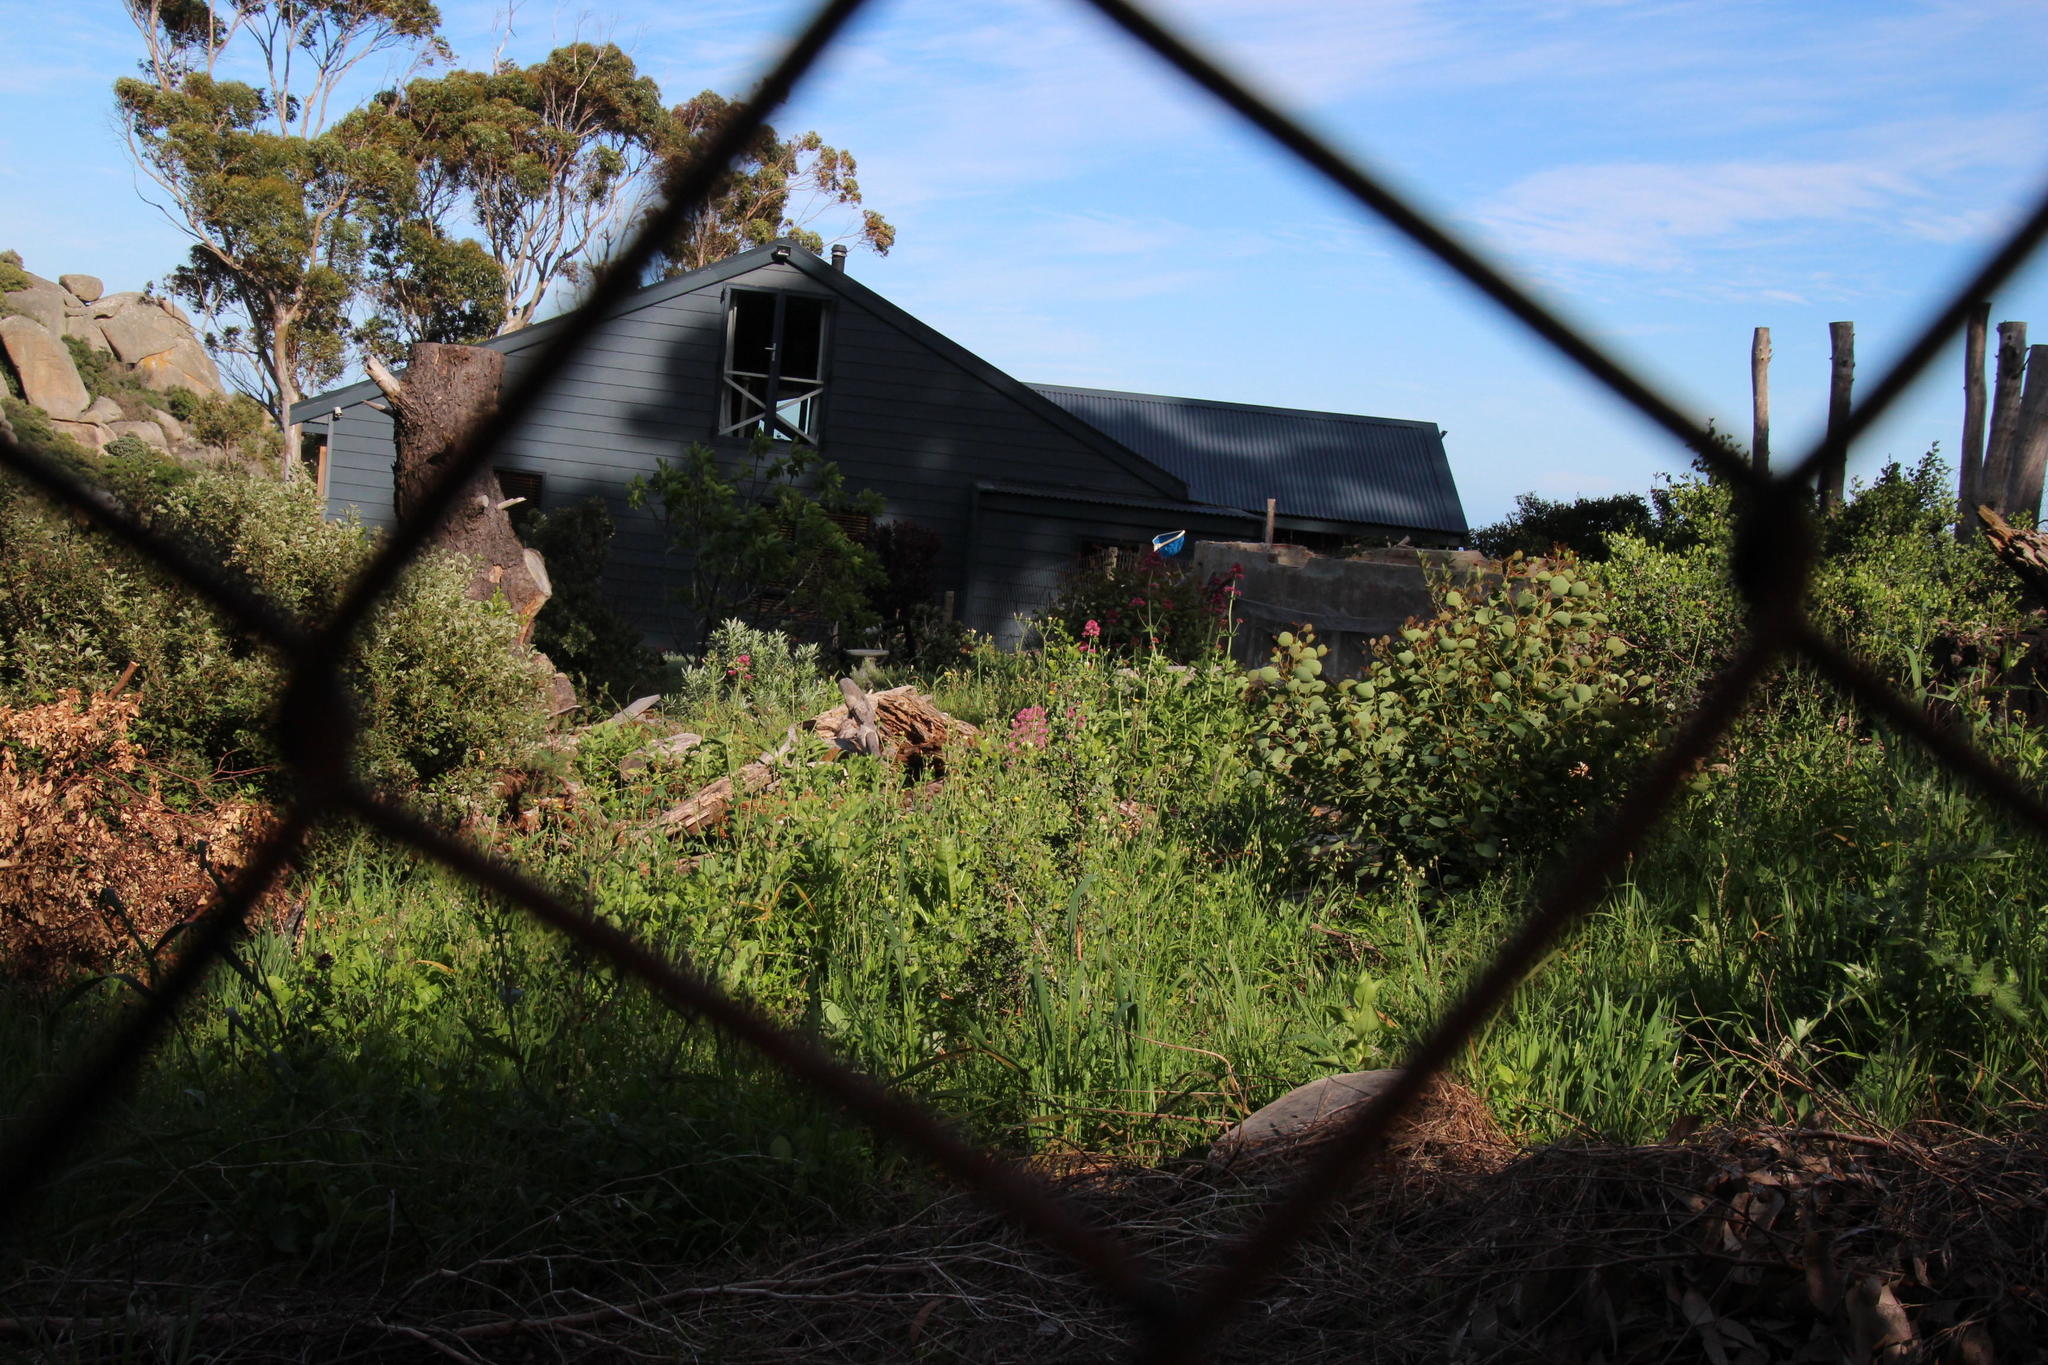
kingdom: Plantae
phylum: Tracheophyta
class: Magnoliopsida
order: Dipsacales
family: Caprifoliaceae
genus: Centranthus
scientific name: Centranthus ruber
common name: Red valerian
